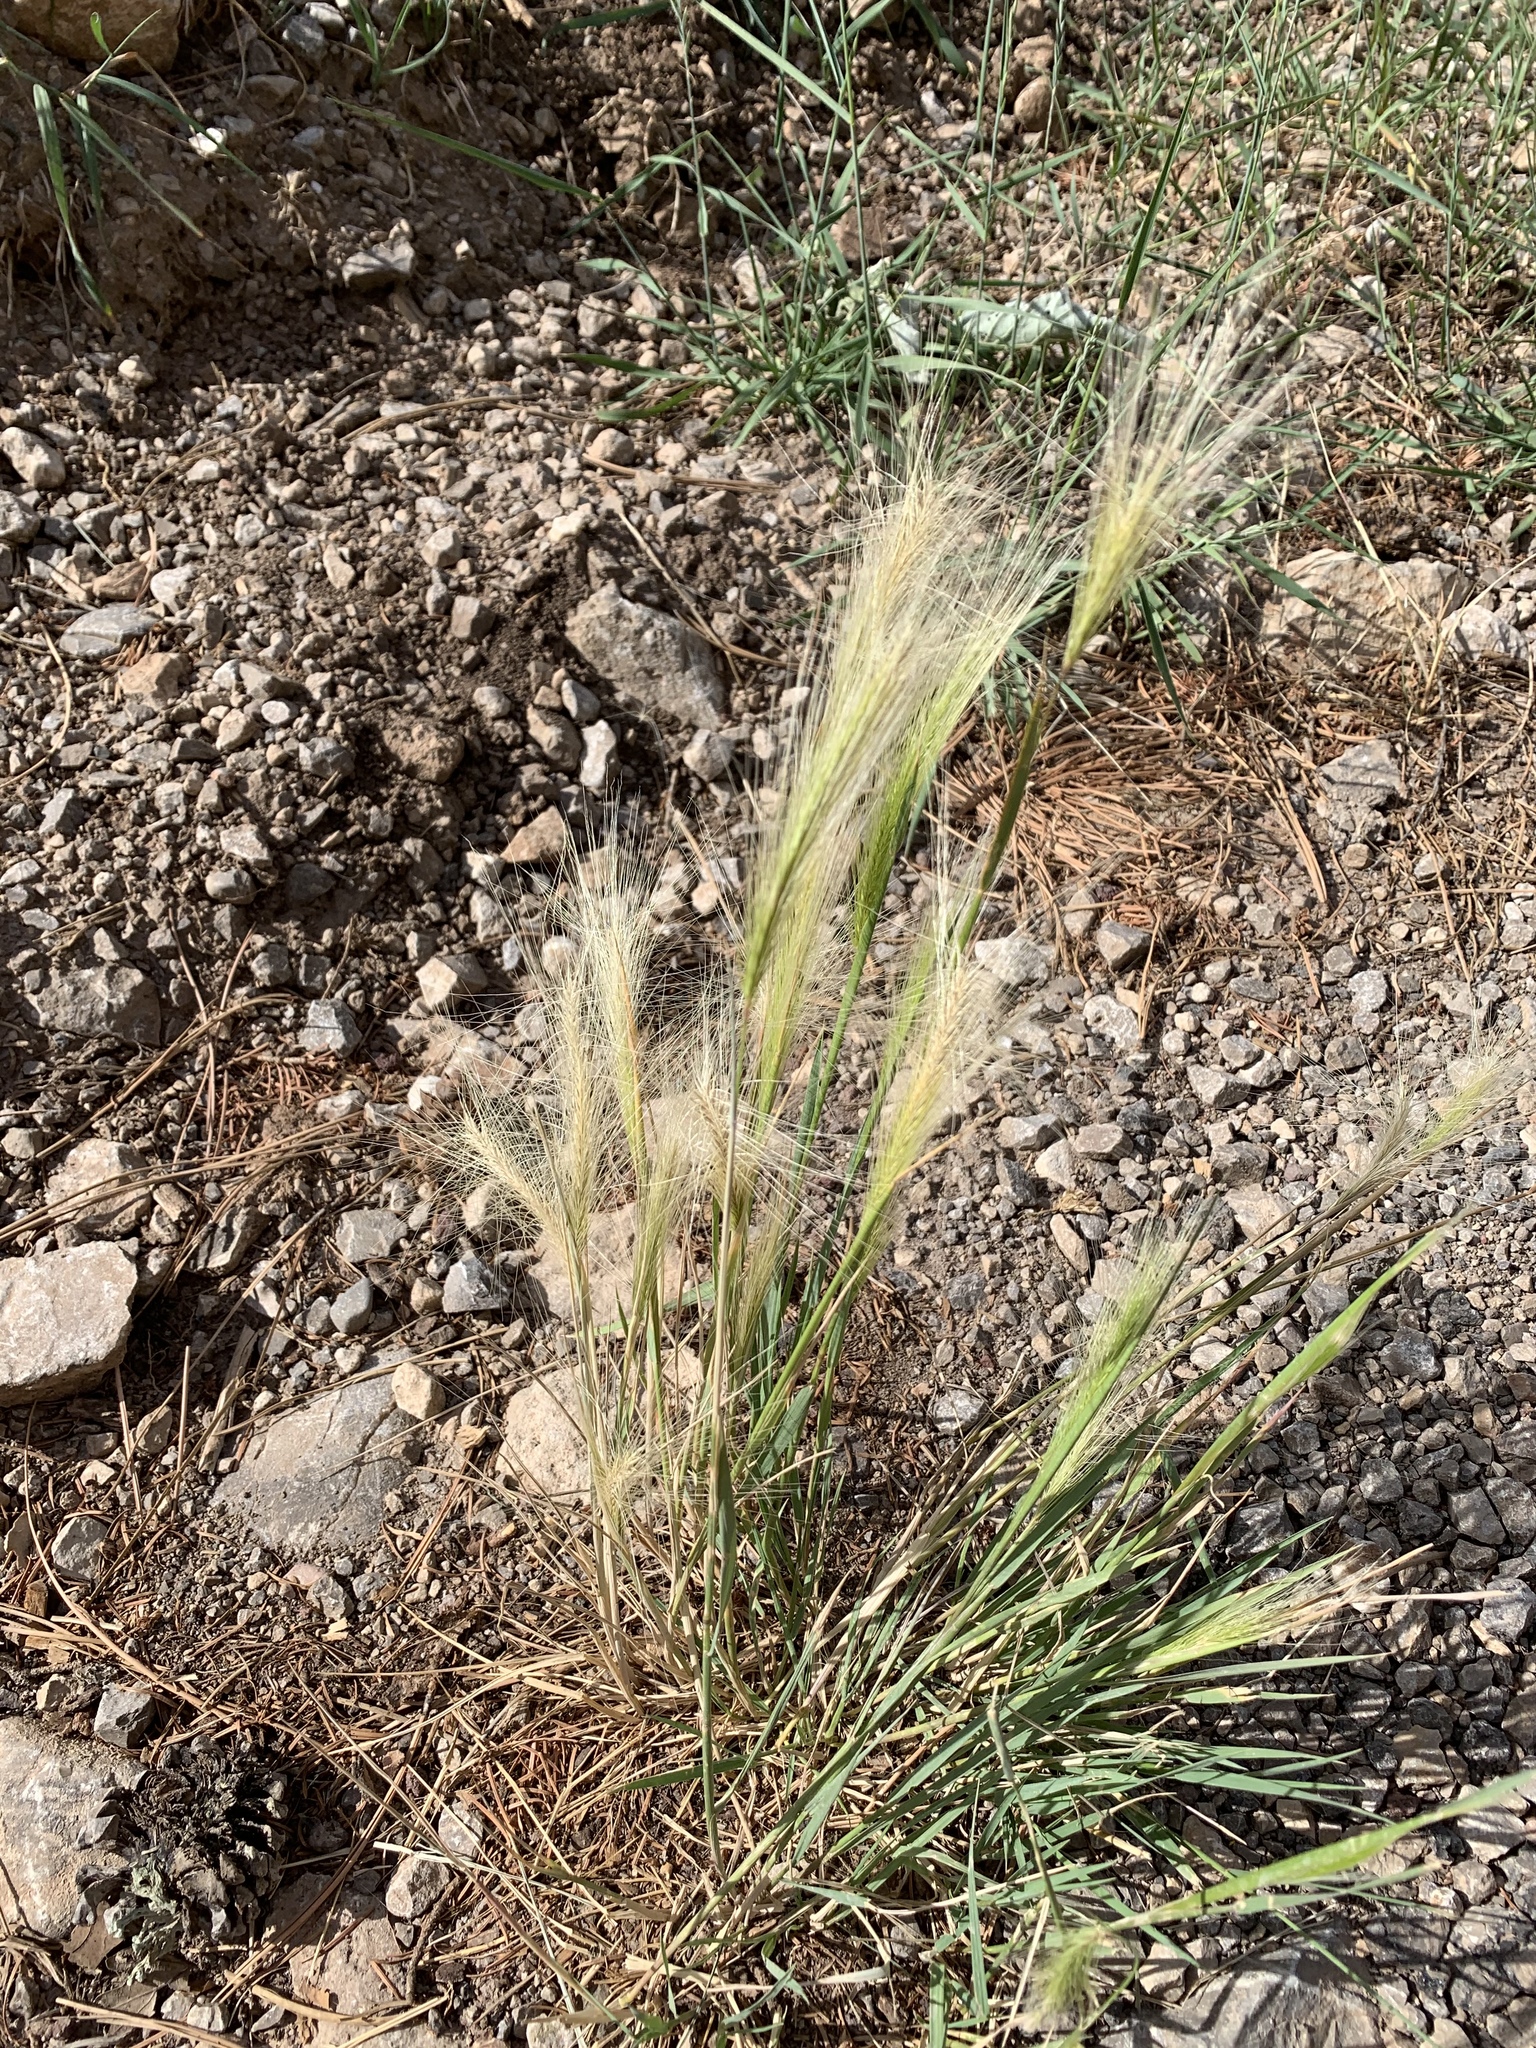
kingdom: Plantae
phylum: Tracheophyta
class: Liliopsida
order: Poales
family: Poaceae
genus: Hordeum
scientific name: Hordeum jubatum
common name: Foxtail barley
